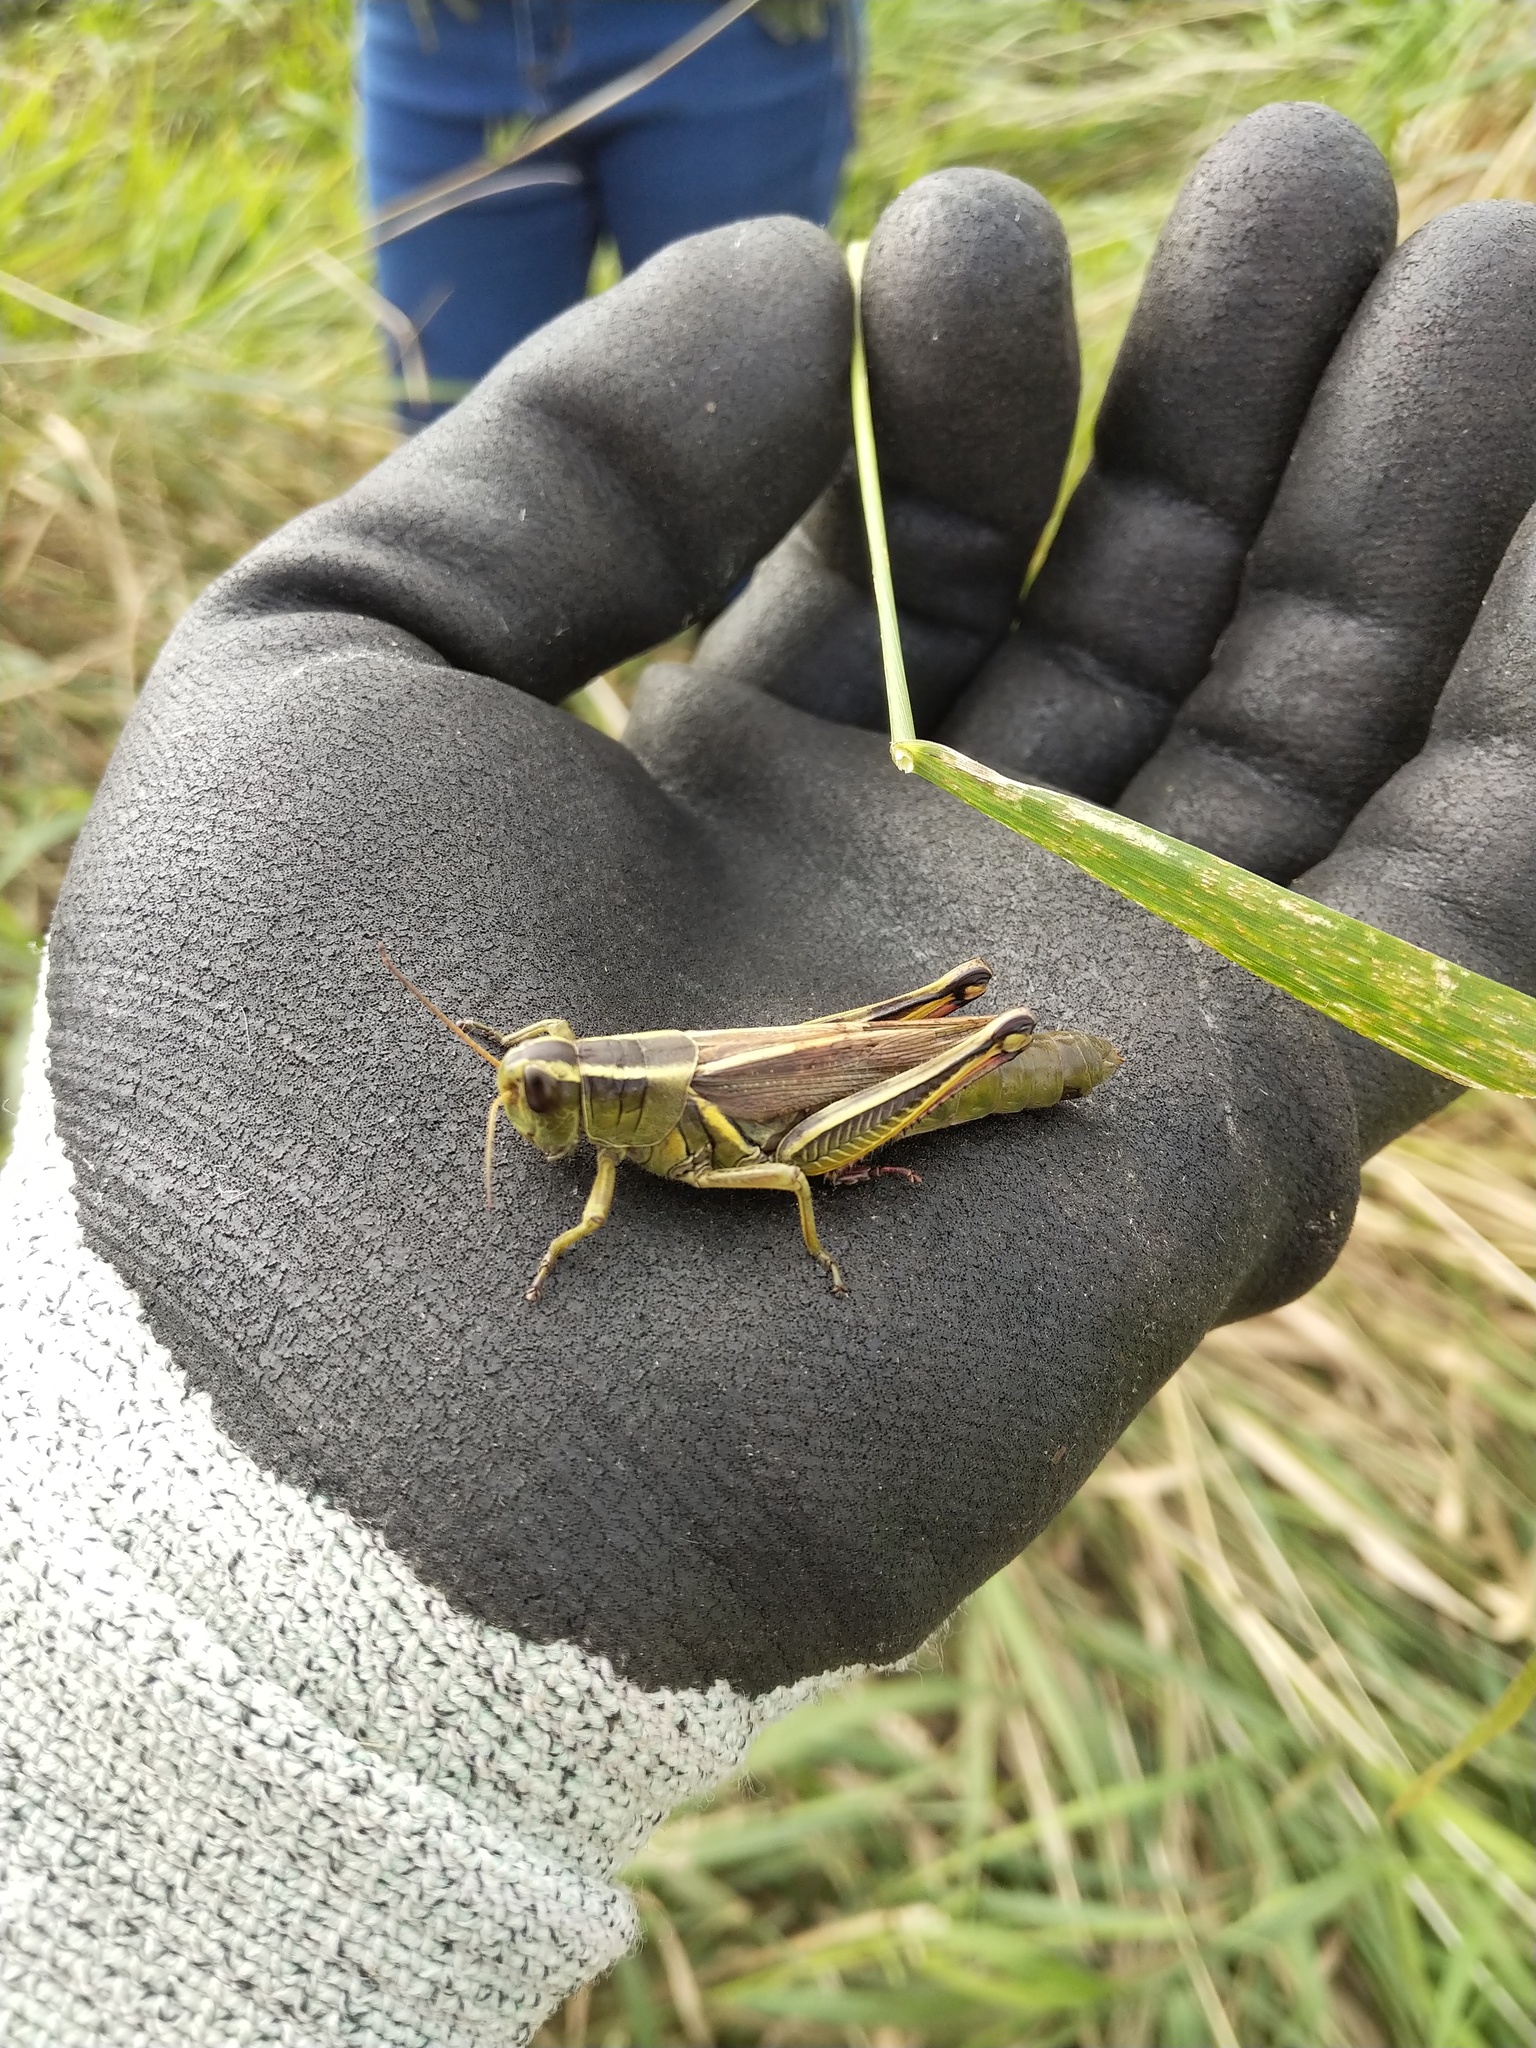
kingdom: Animalia
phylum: Arthropoda
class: Insecta
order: Orthoptera
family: Acrididae
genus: Melanoplus
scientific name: Melanoplus bivittatus
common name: Two-striped grasshopper
